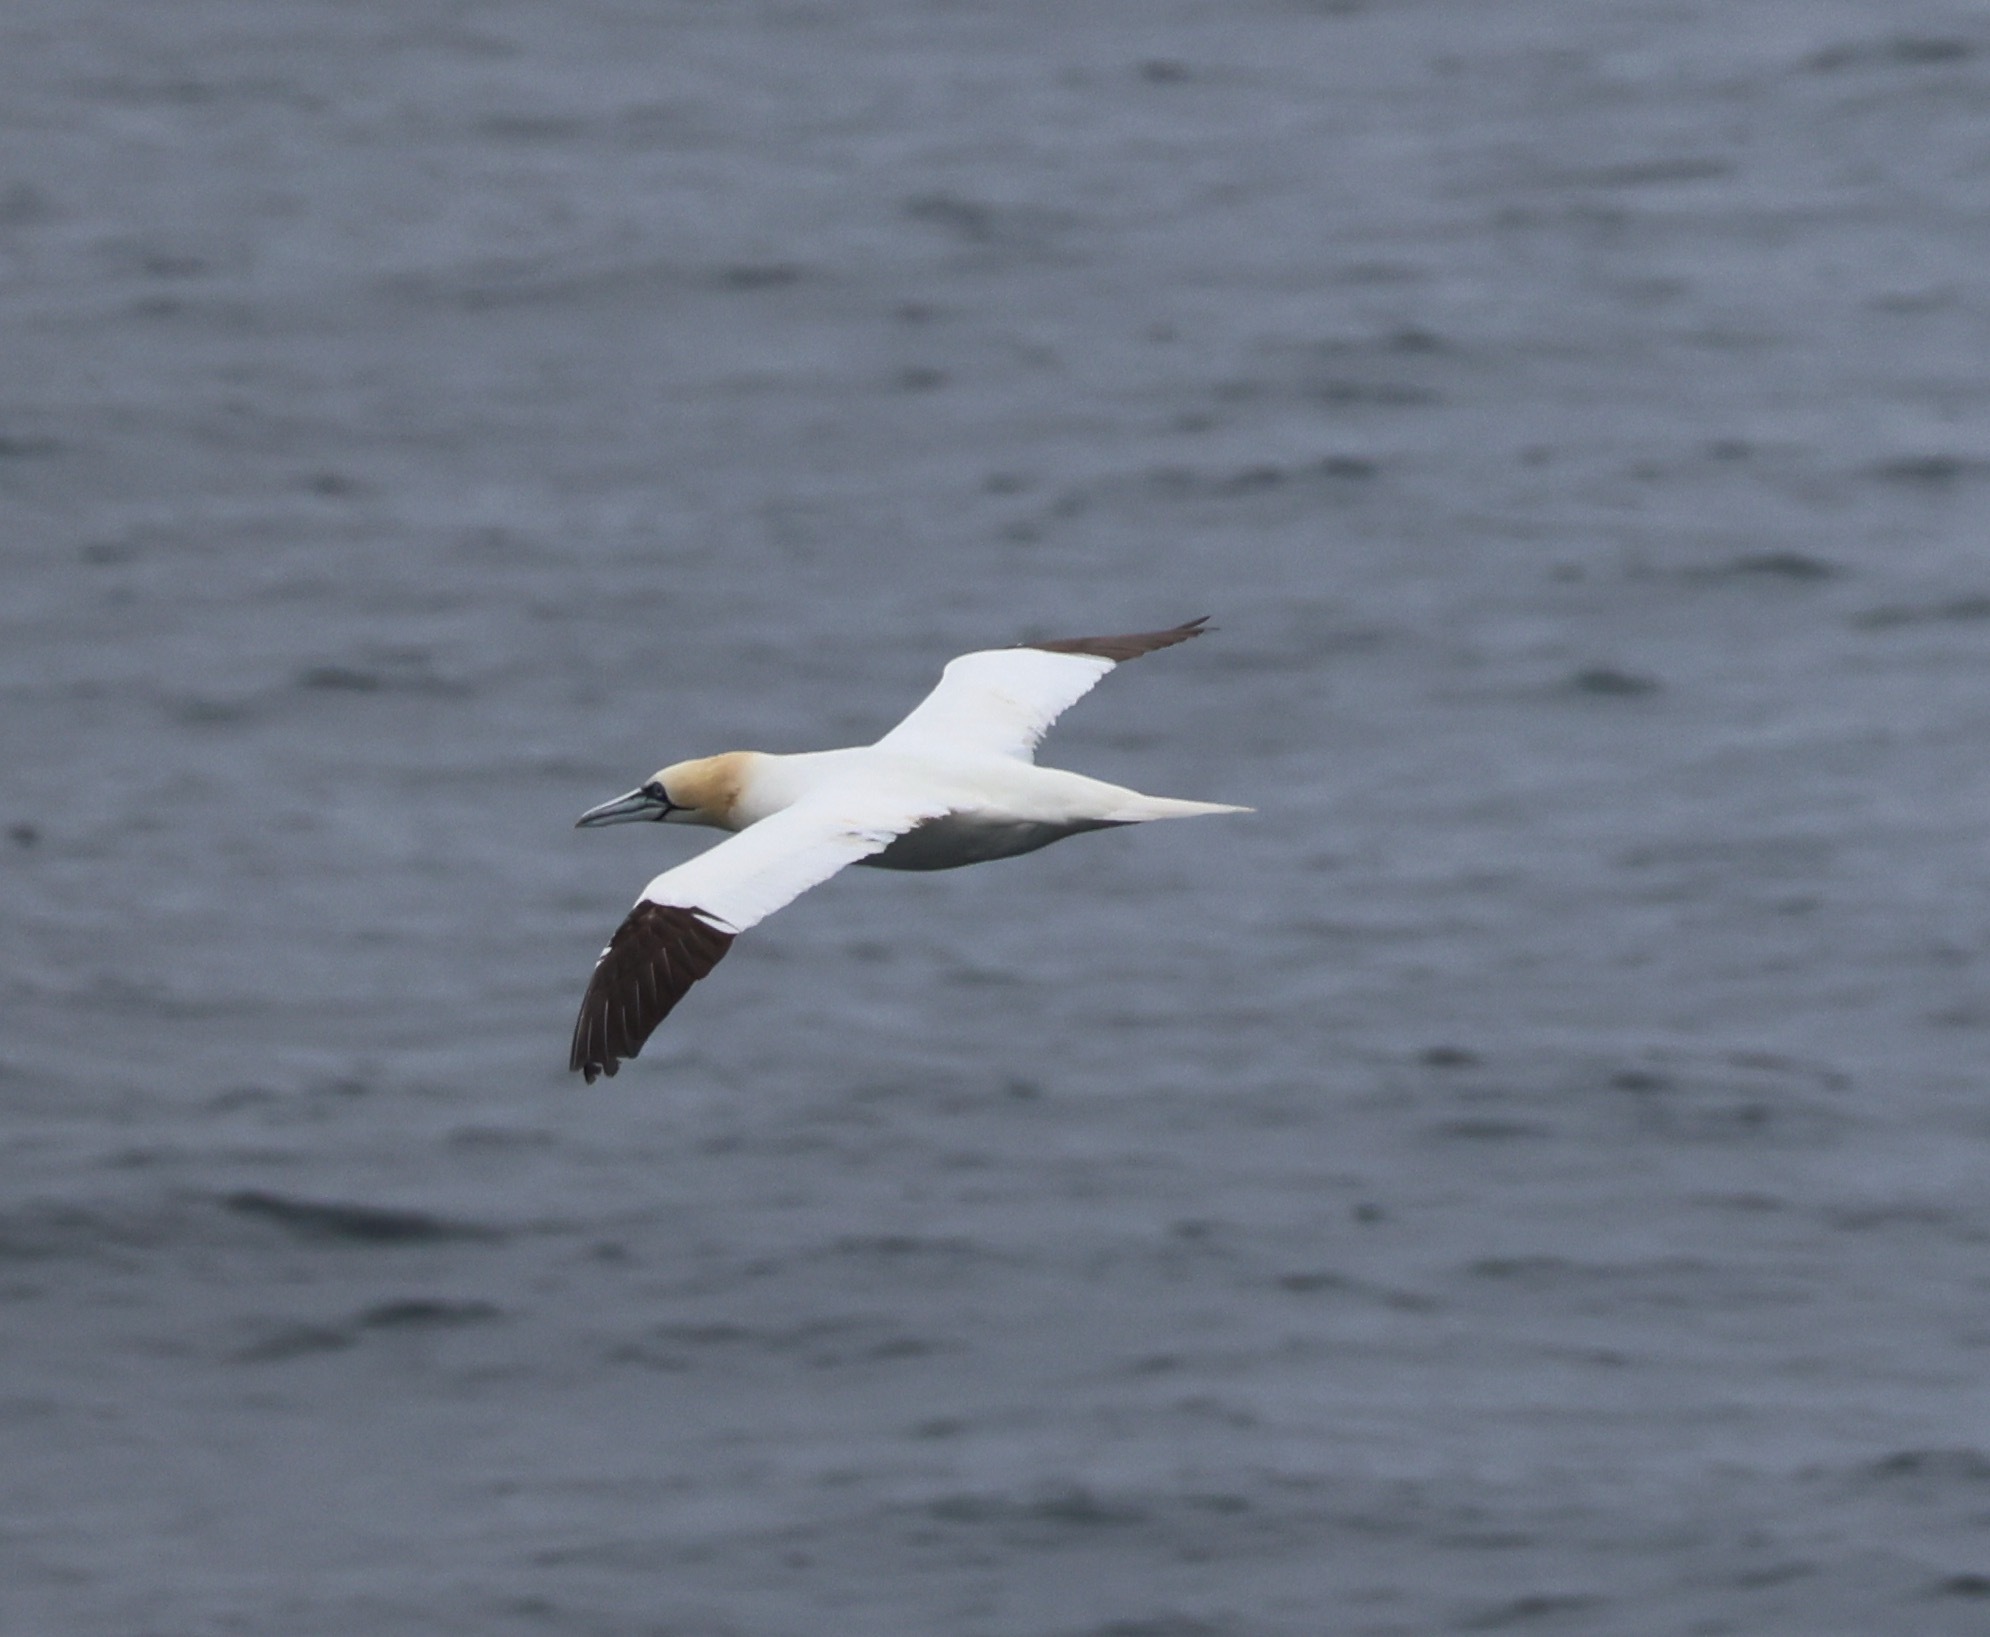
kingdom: Animalia
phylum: Chordata
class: Aves
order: Suliformes
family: Sulidae
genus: Morus
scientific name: Morus bassanus
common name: Northern gannet
